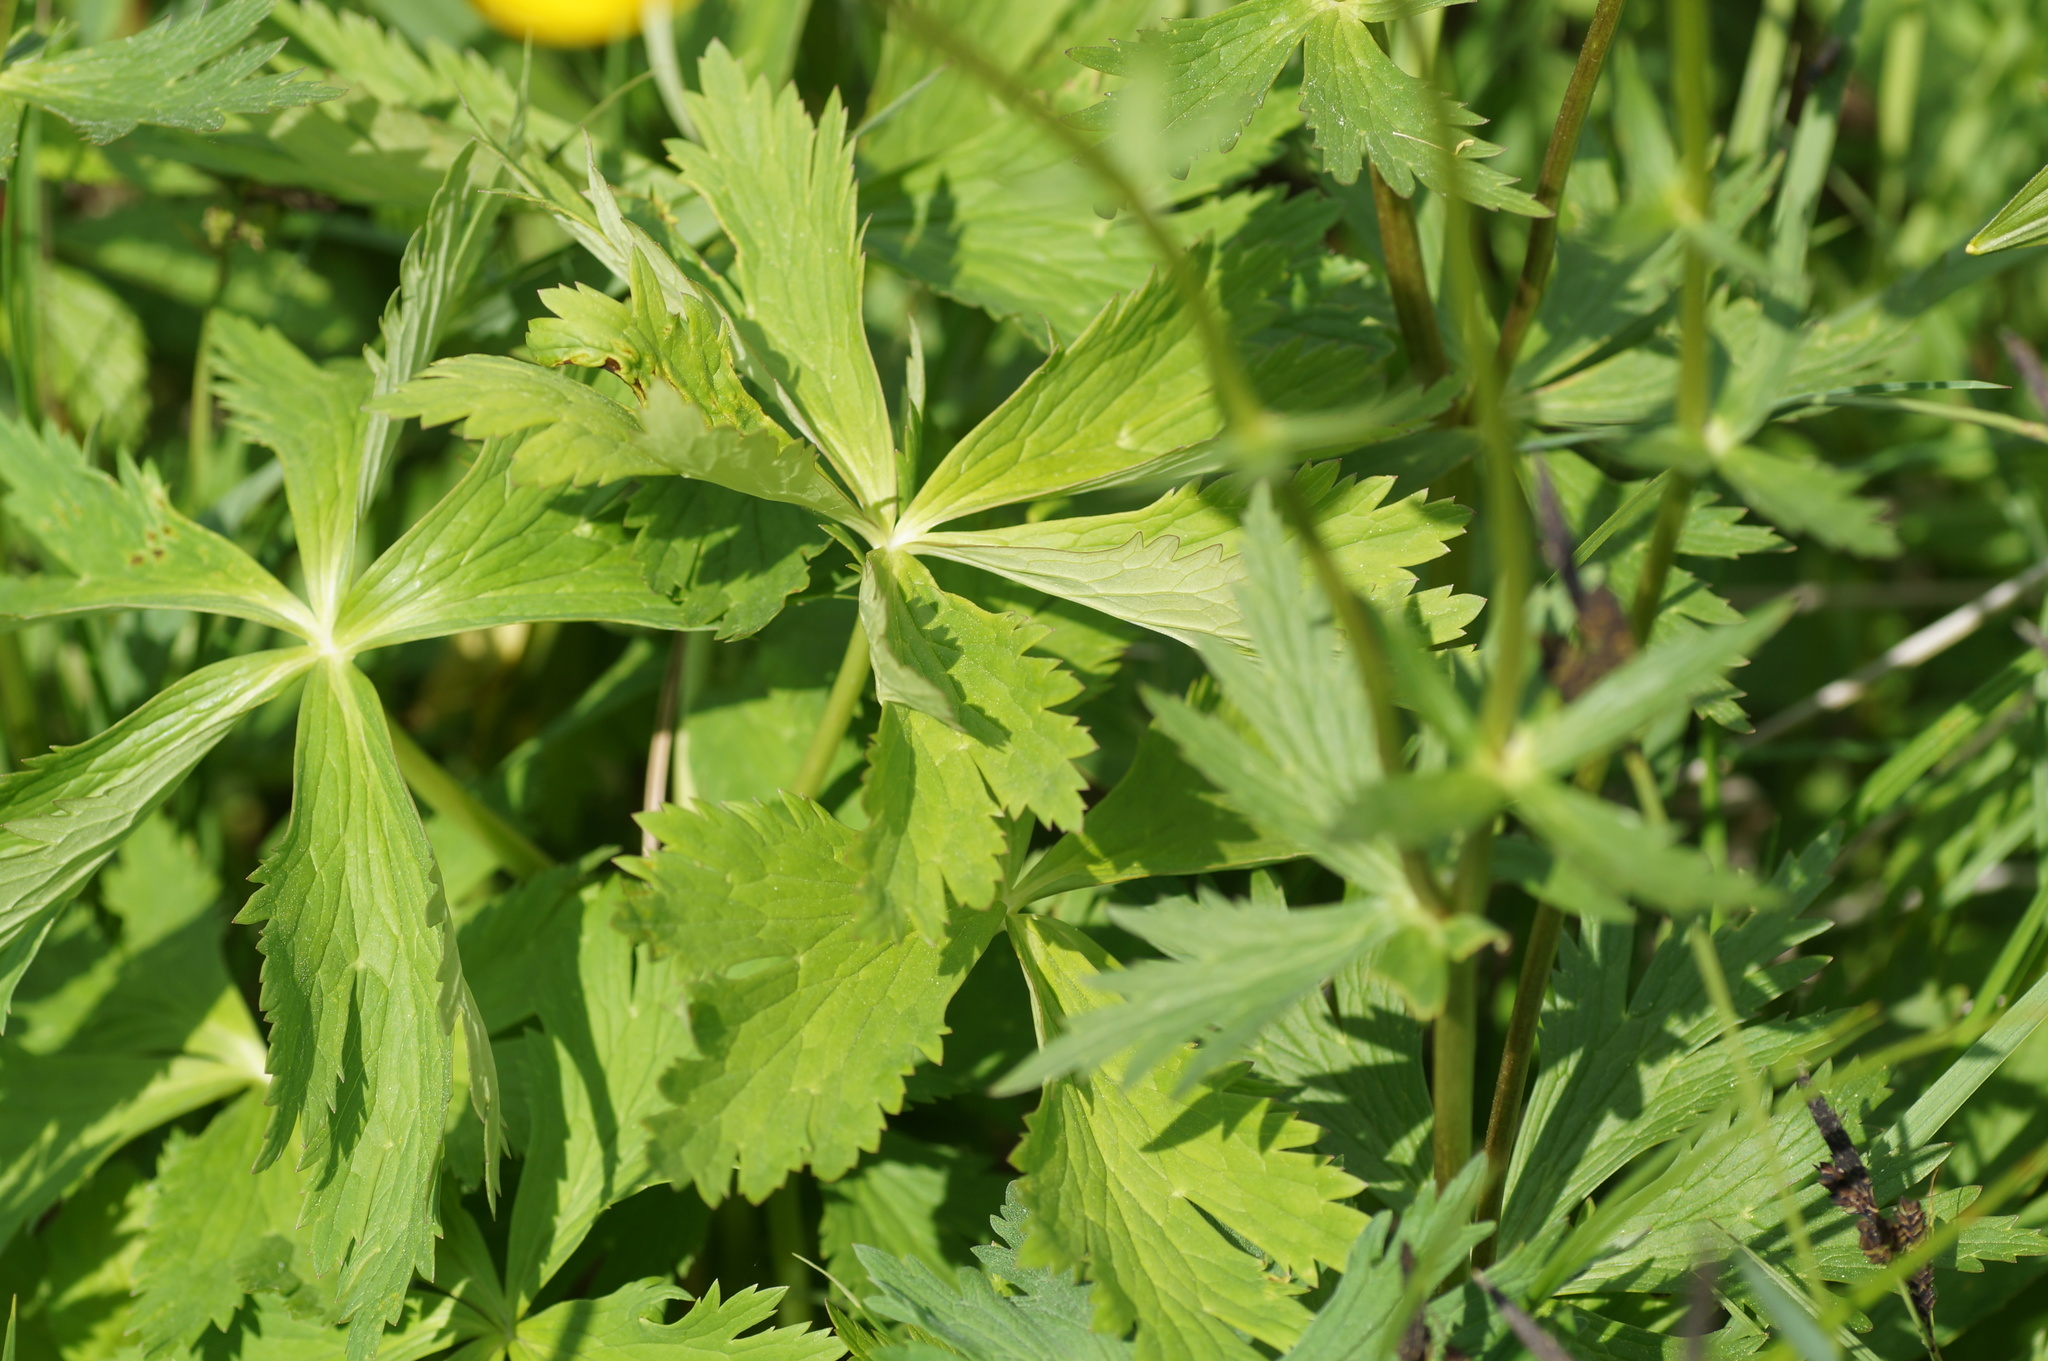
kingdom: Plantae
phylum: Tracheophyta
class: Magnoliopsida
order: Ranunculales
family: Ranunculaceae
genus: Trollius
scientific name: Trollius europaeus
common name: European globeflower
